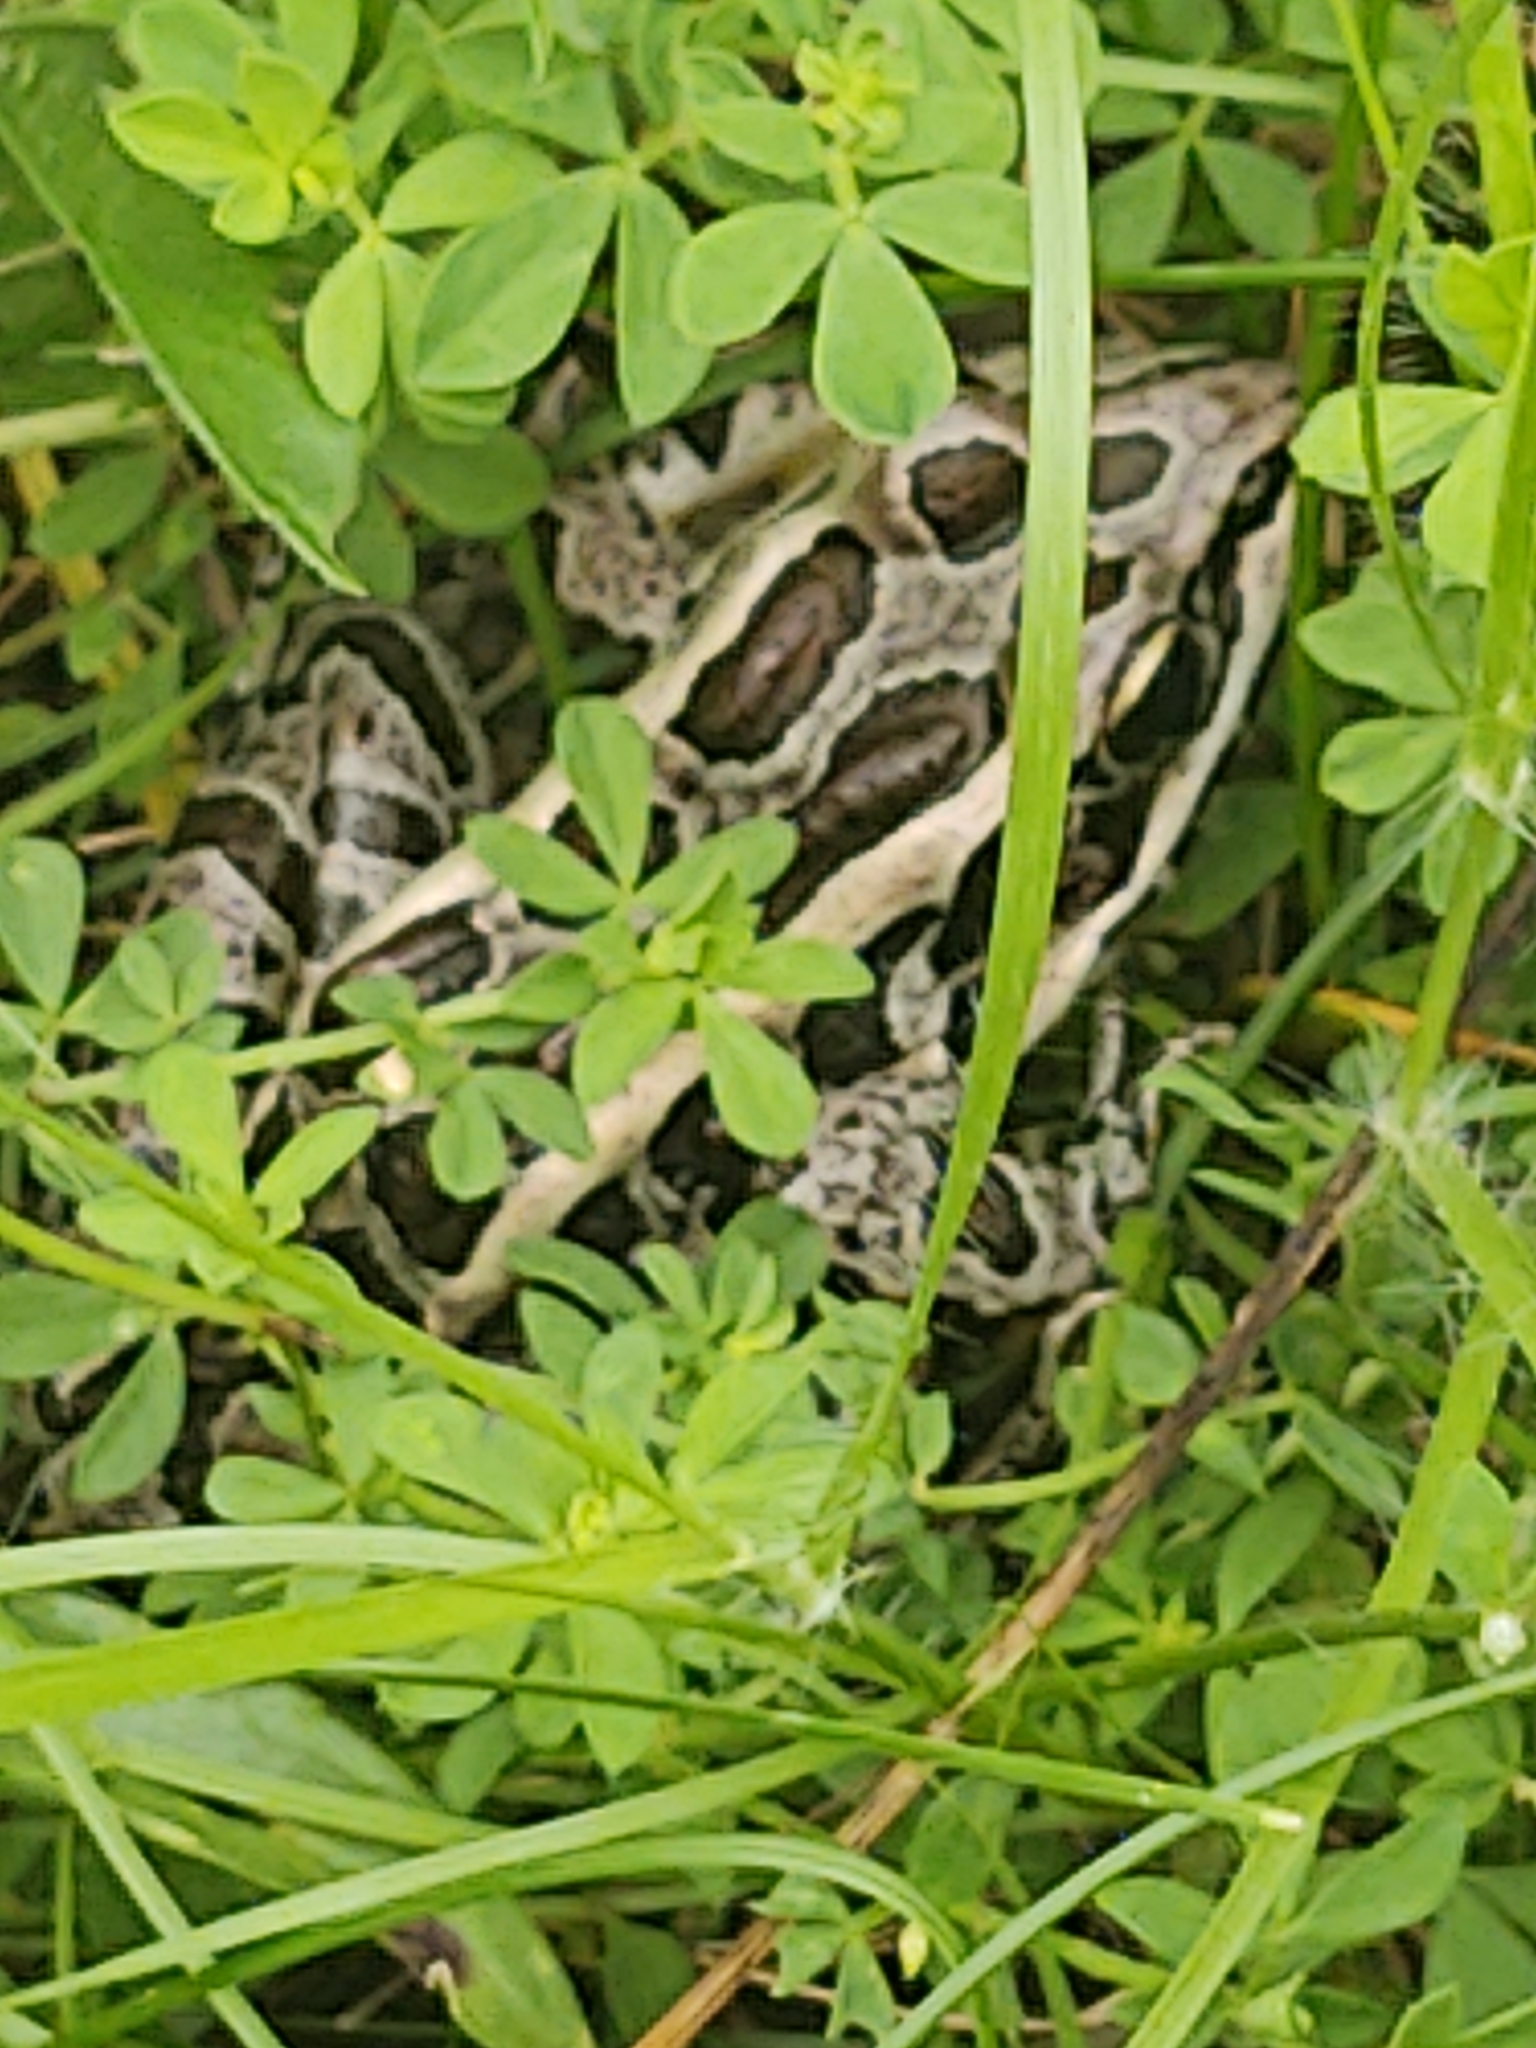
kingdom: Animalia
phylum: Chordata
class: Amphibia
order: Anura
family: Ranidae
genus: Lithobates
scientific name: Lithobates palustris
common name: Pickerel frog
